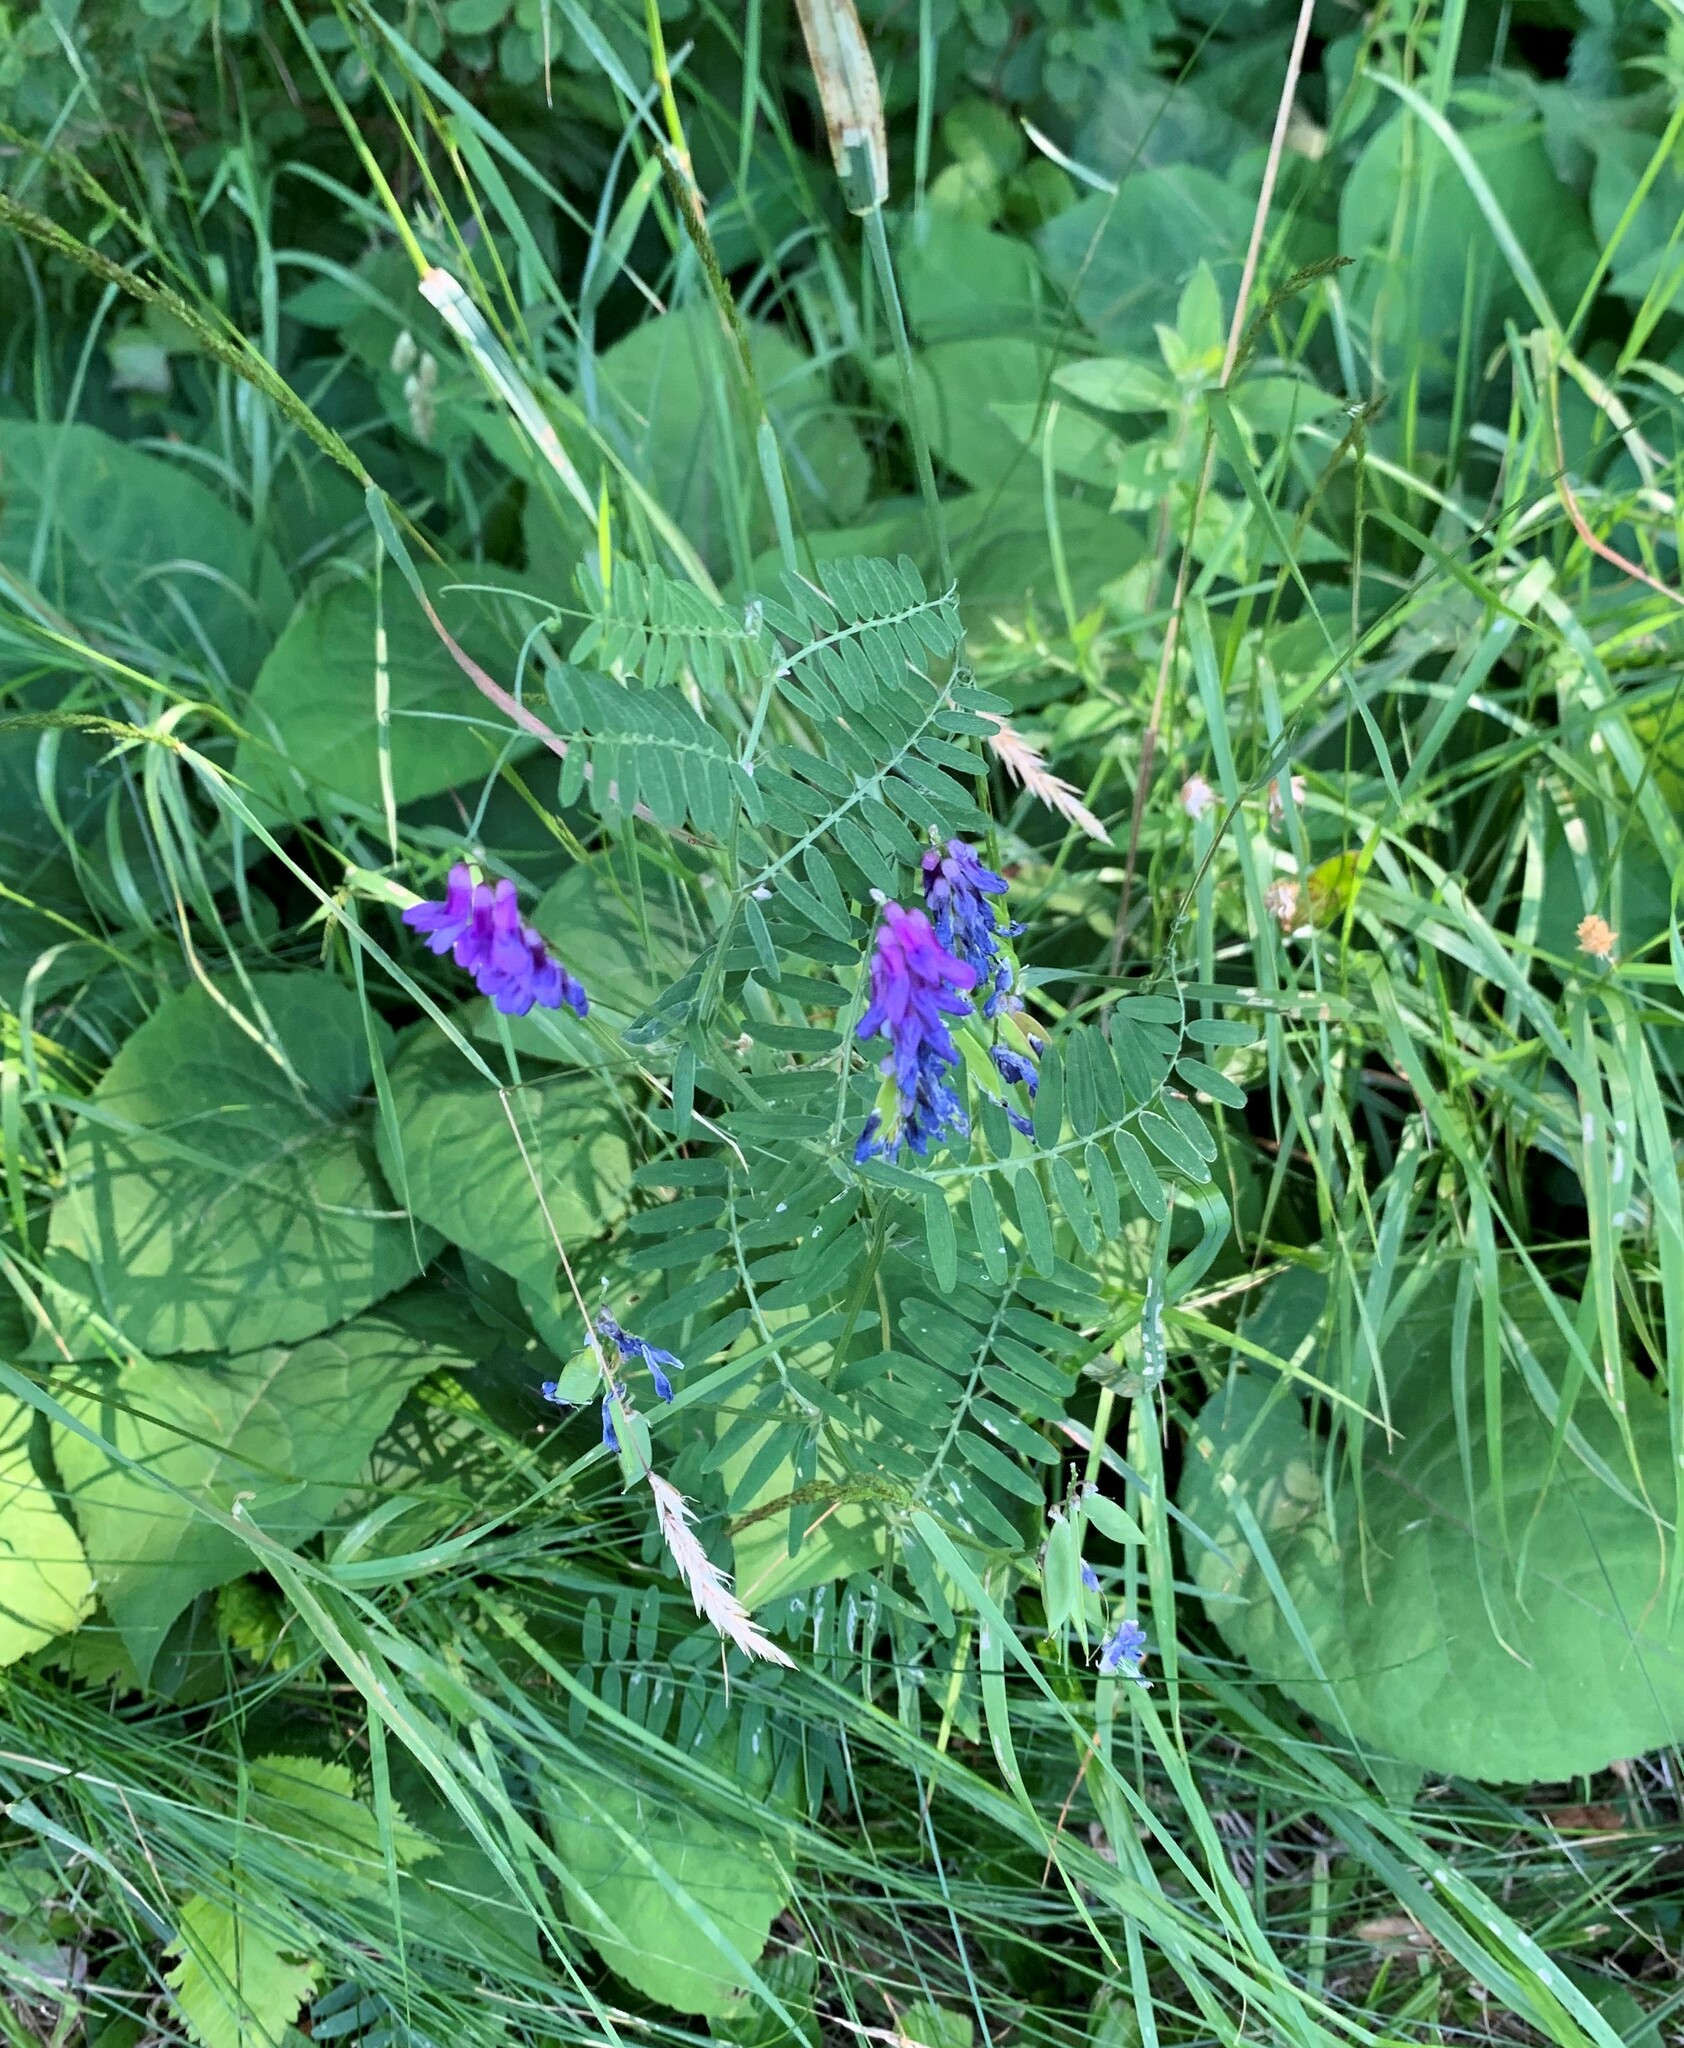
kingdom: Plantae
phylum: Tracheophyta
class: Magnoliopsida
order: Fabales
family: Fabaceae
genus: Vicia
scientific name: Vicia cracca
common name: Bird vetch
